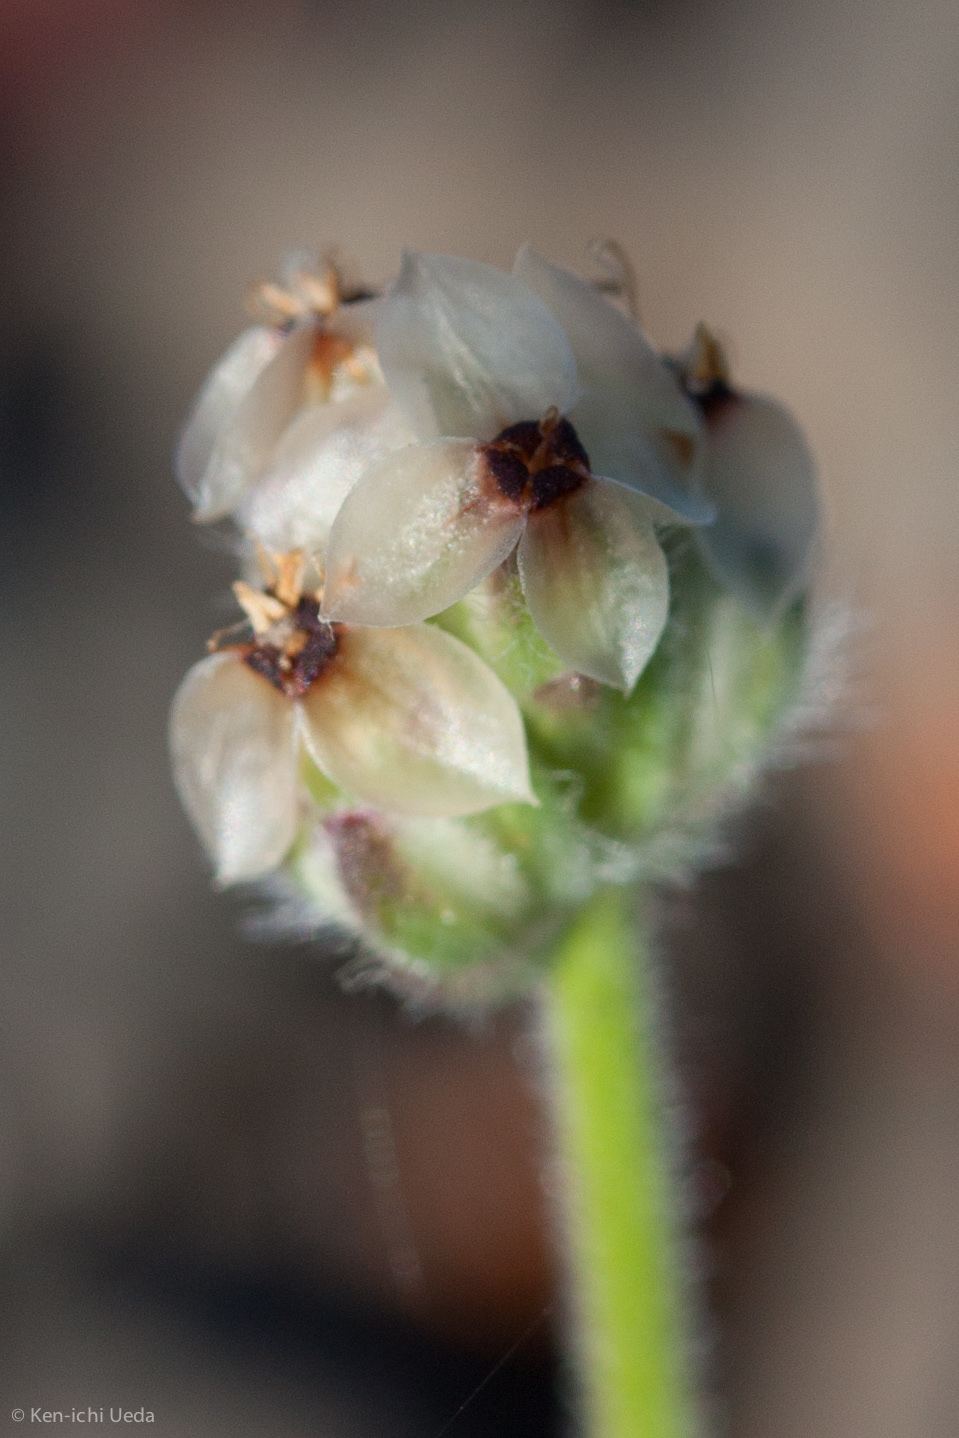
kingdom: Plantae
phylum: Tracheophyta
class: Magnoliopsida
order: Lamiales
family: Plantaginaceae
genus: Plantago
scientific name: Plantago erecta
